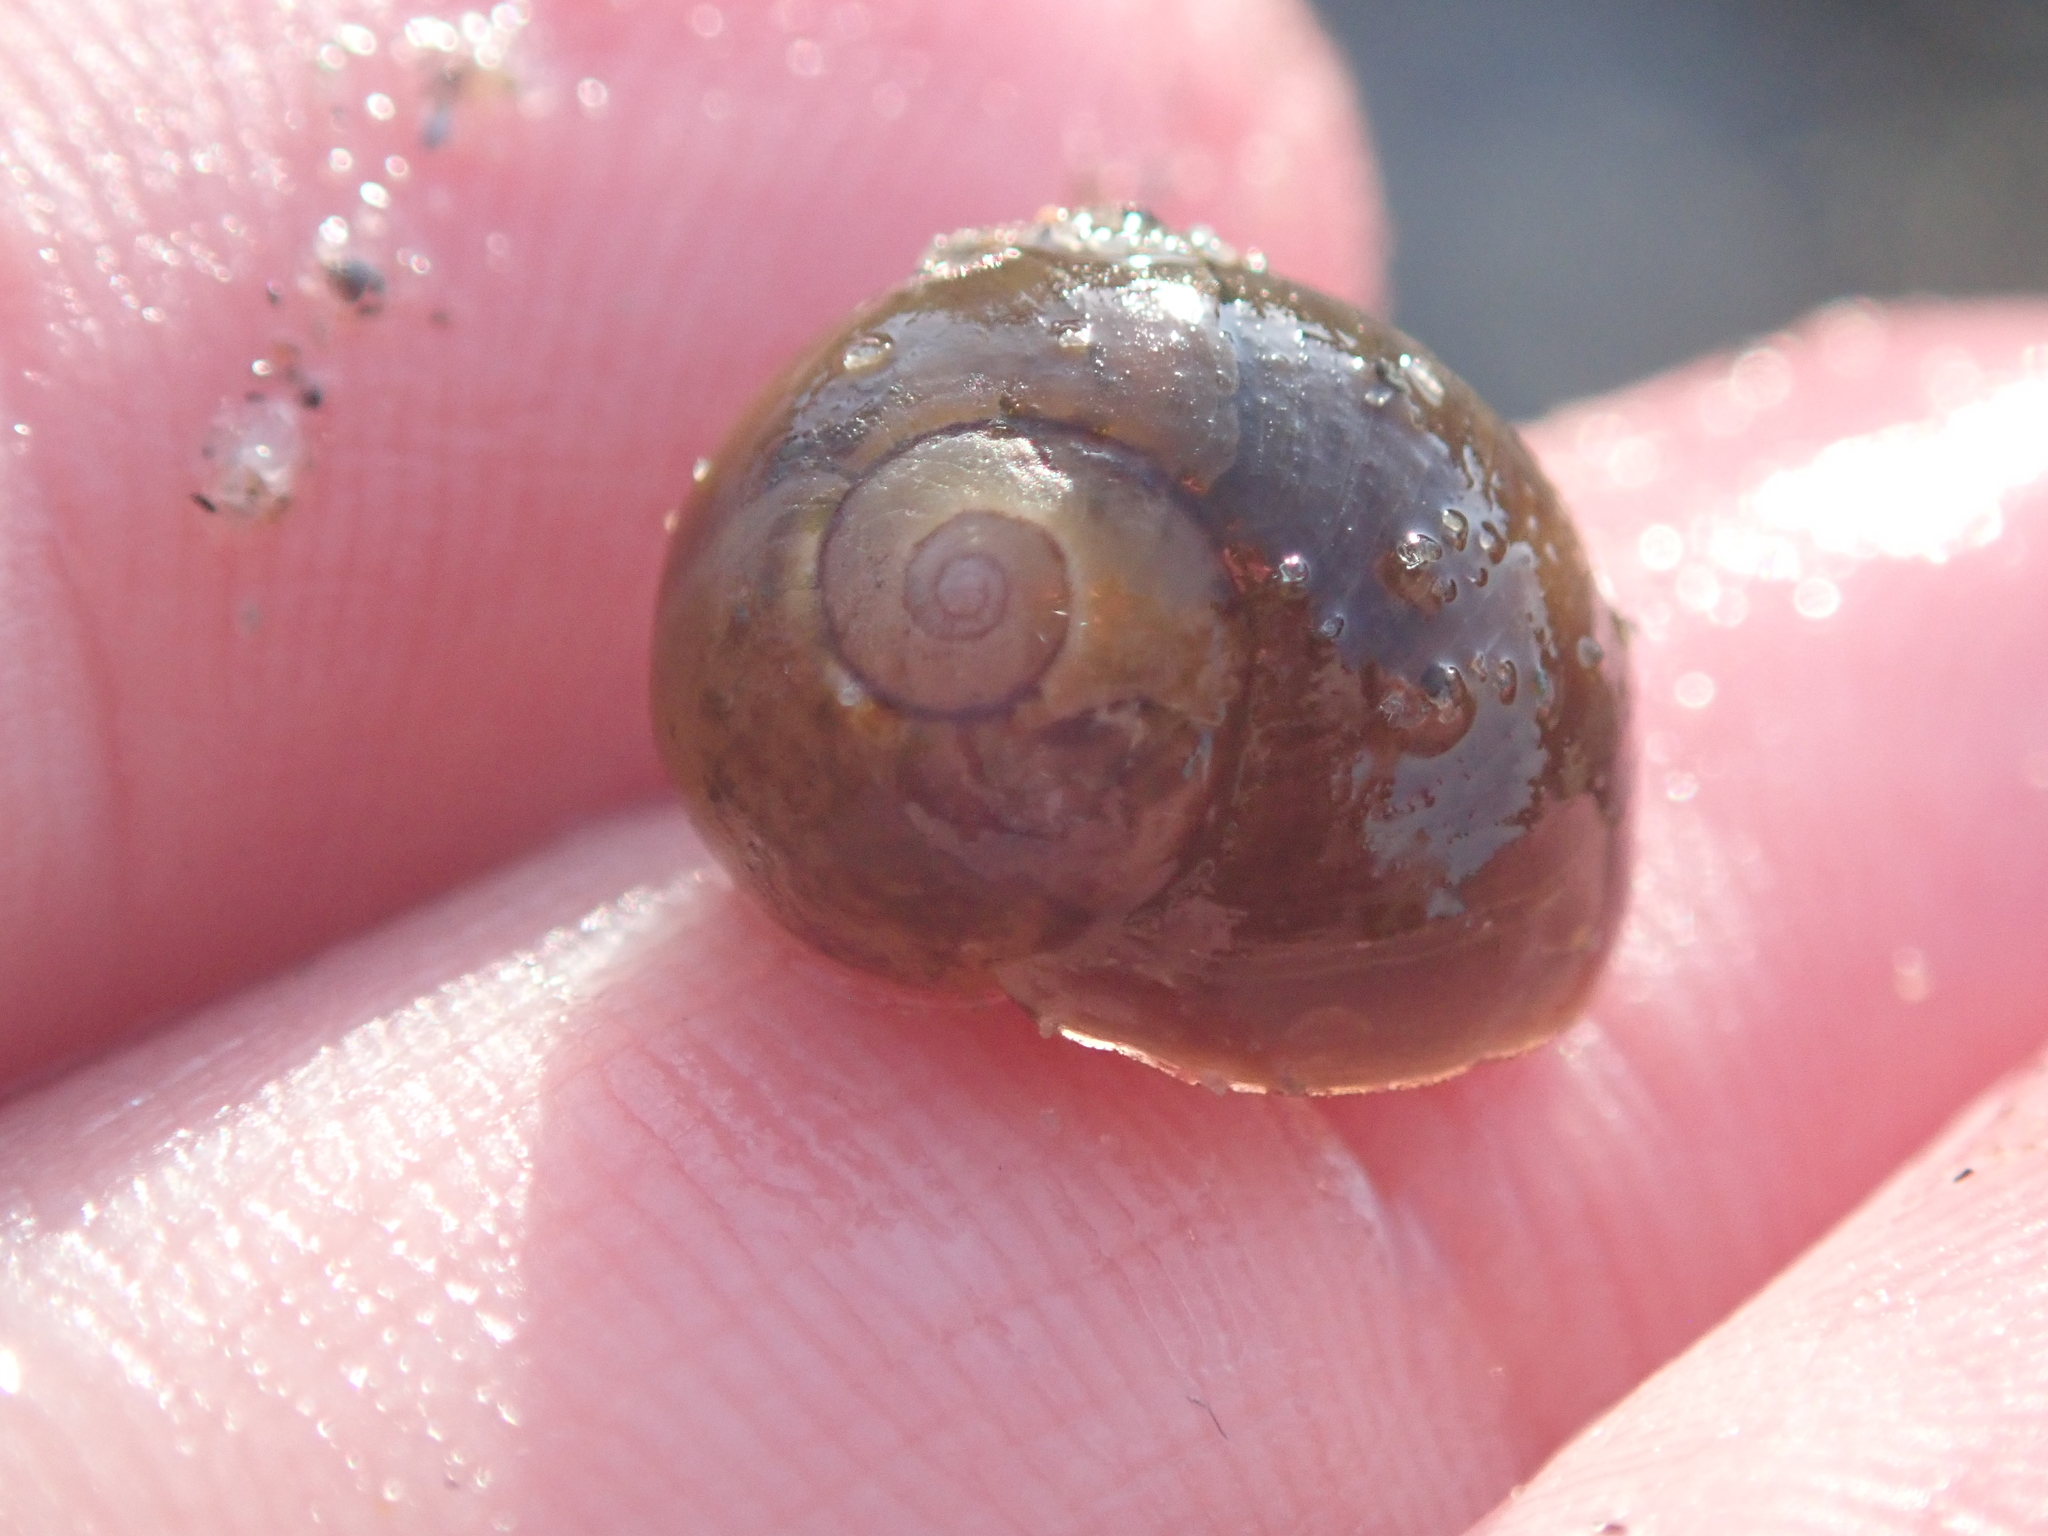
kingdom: Animalia
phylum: Mollusca
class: Gastropoda
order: Littorinimorpha
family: Littorinidae
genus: Littorina
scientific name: Littorina obtusata
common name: Flat periwinkle
